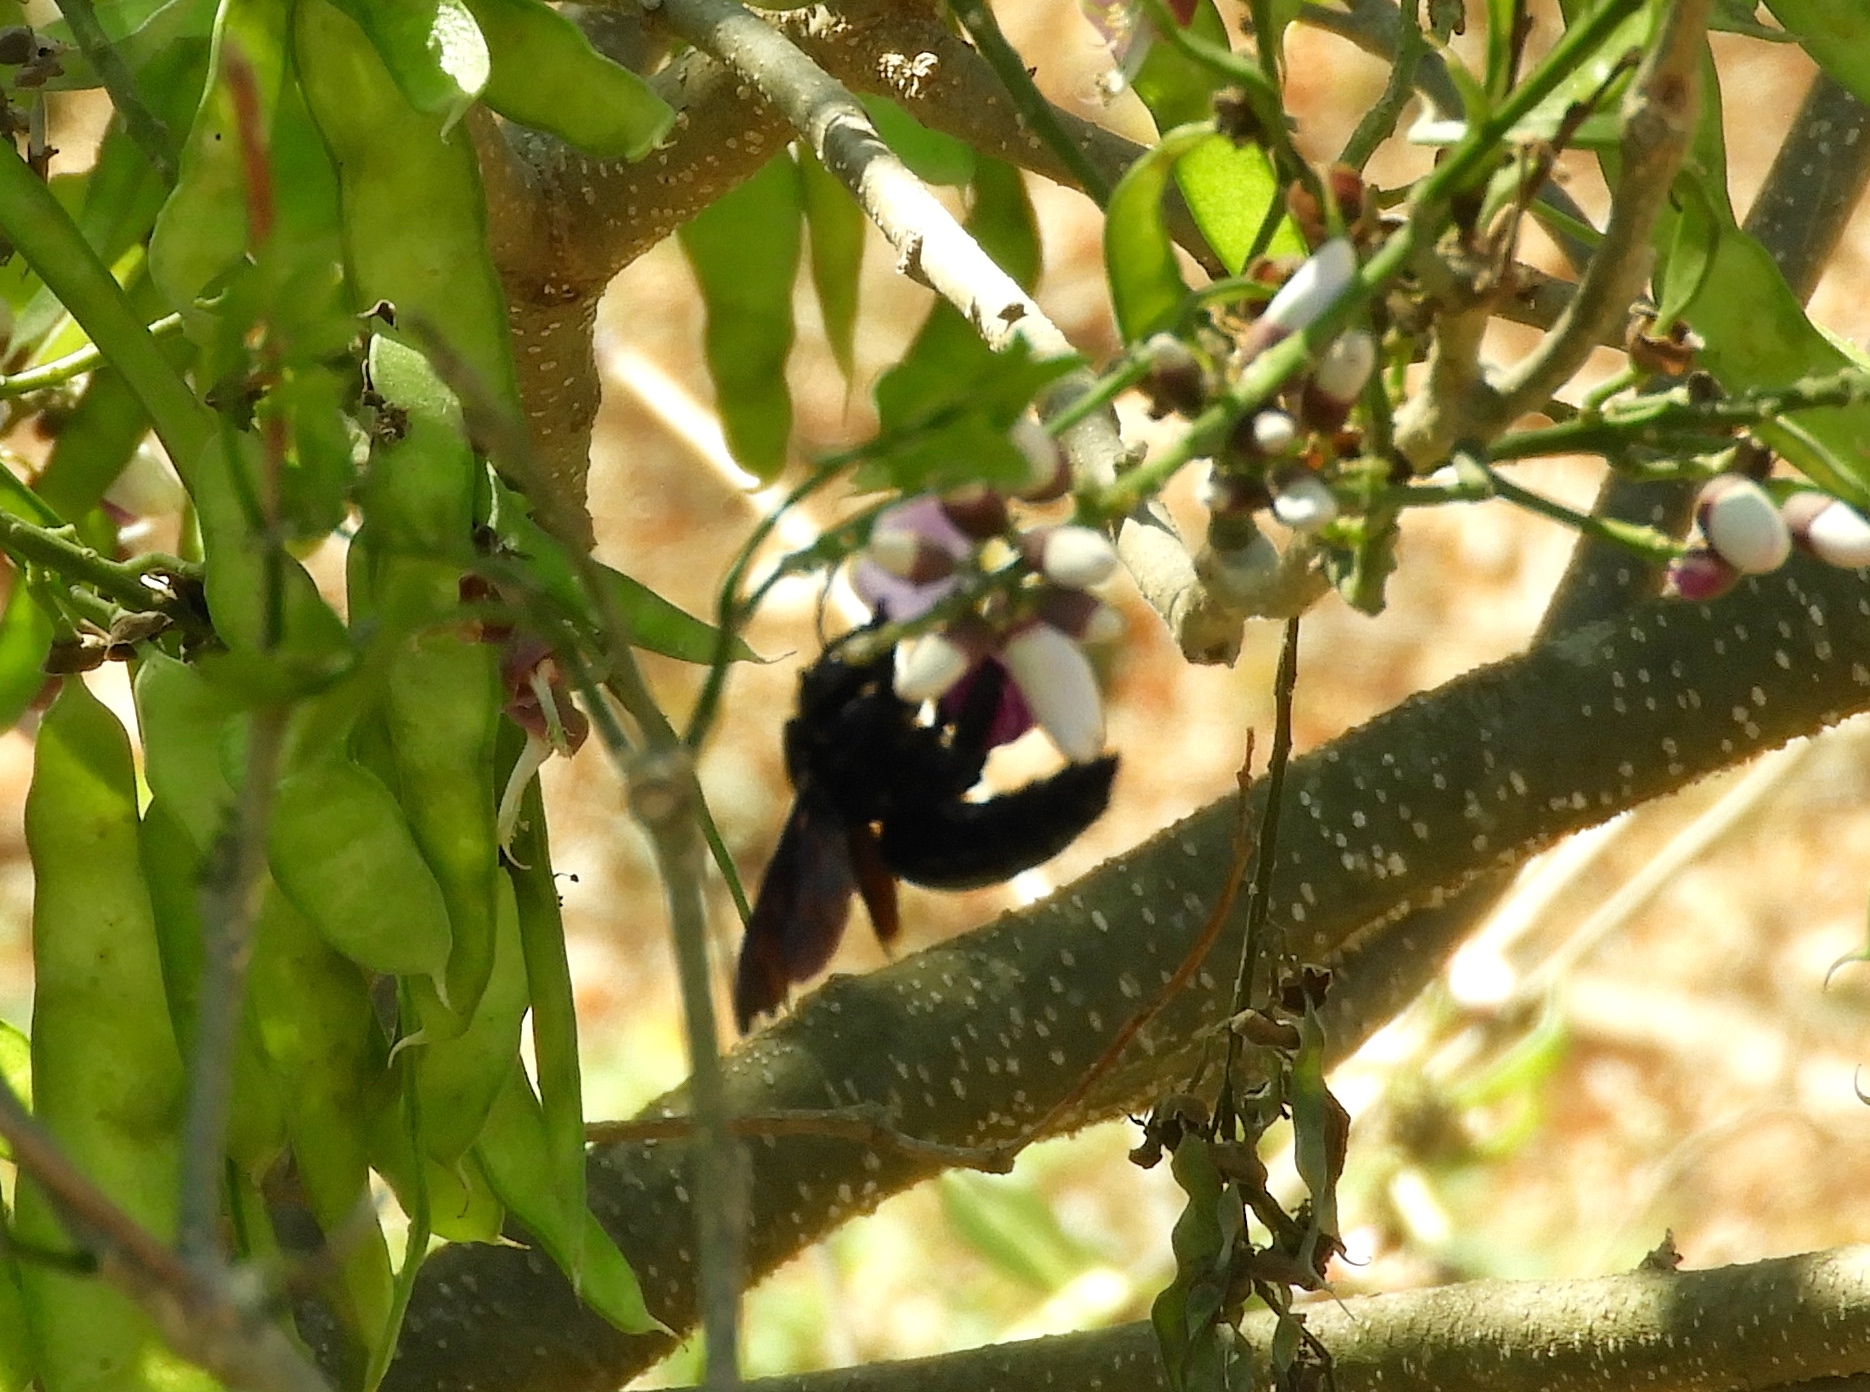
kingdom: Animalia
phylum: Arthropoda
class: Insecta
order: Hymenoptera
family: Apidae
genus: Xylocopa
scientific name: Xylocopa
